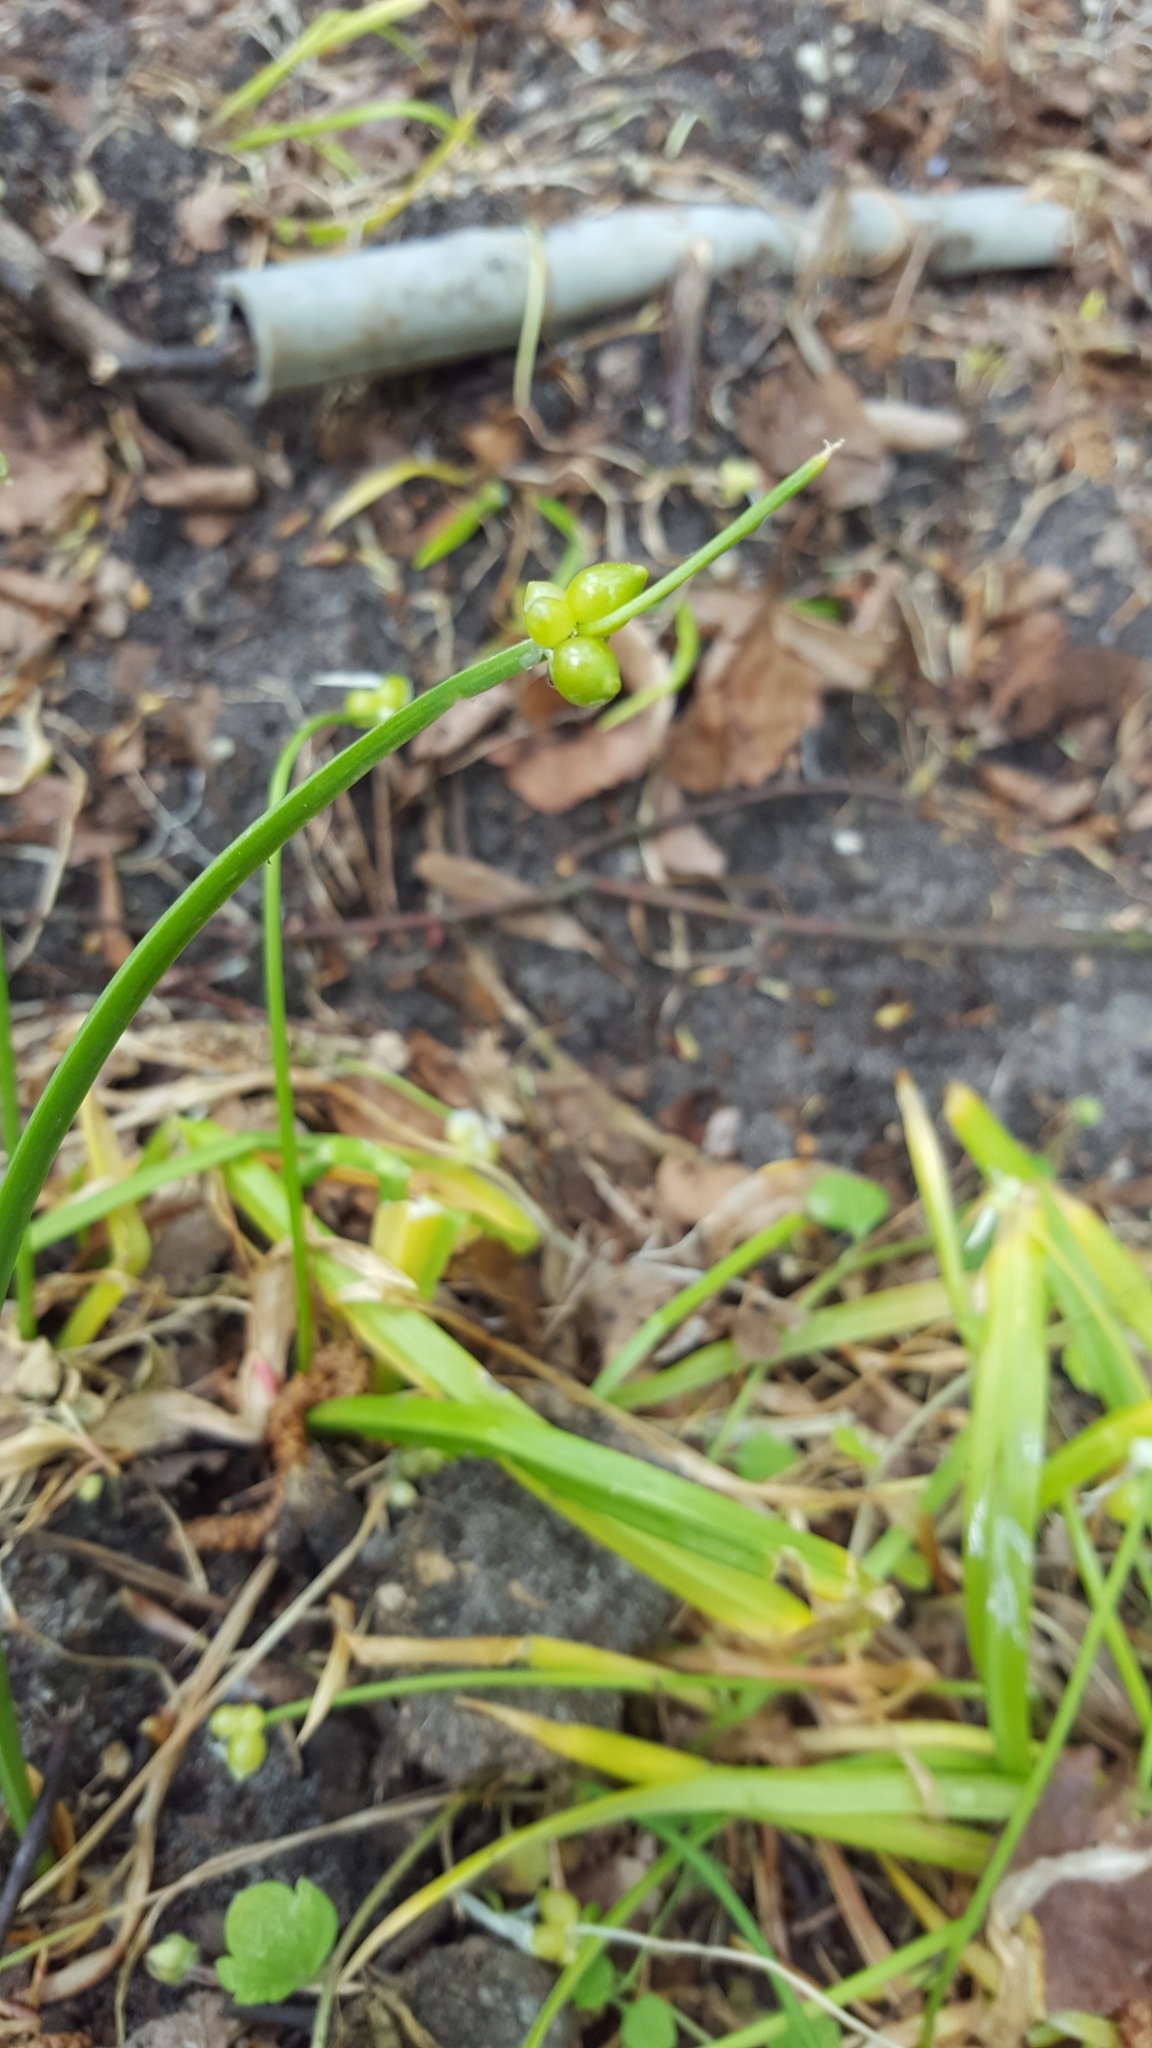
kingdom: Plantae
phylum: Tracheophyta
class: Liliopsida
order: Asparagales
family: Amaryllidaceae
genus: Allium
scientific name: Allium paradoxum
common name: Few-flowered garlic
